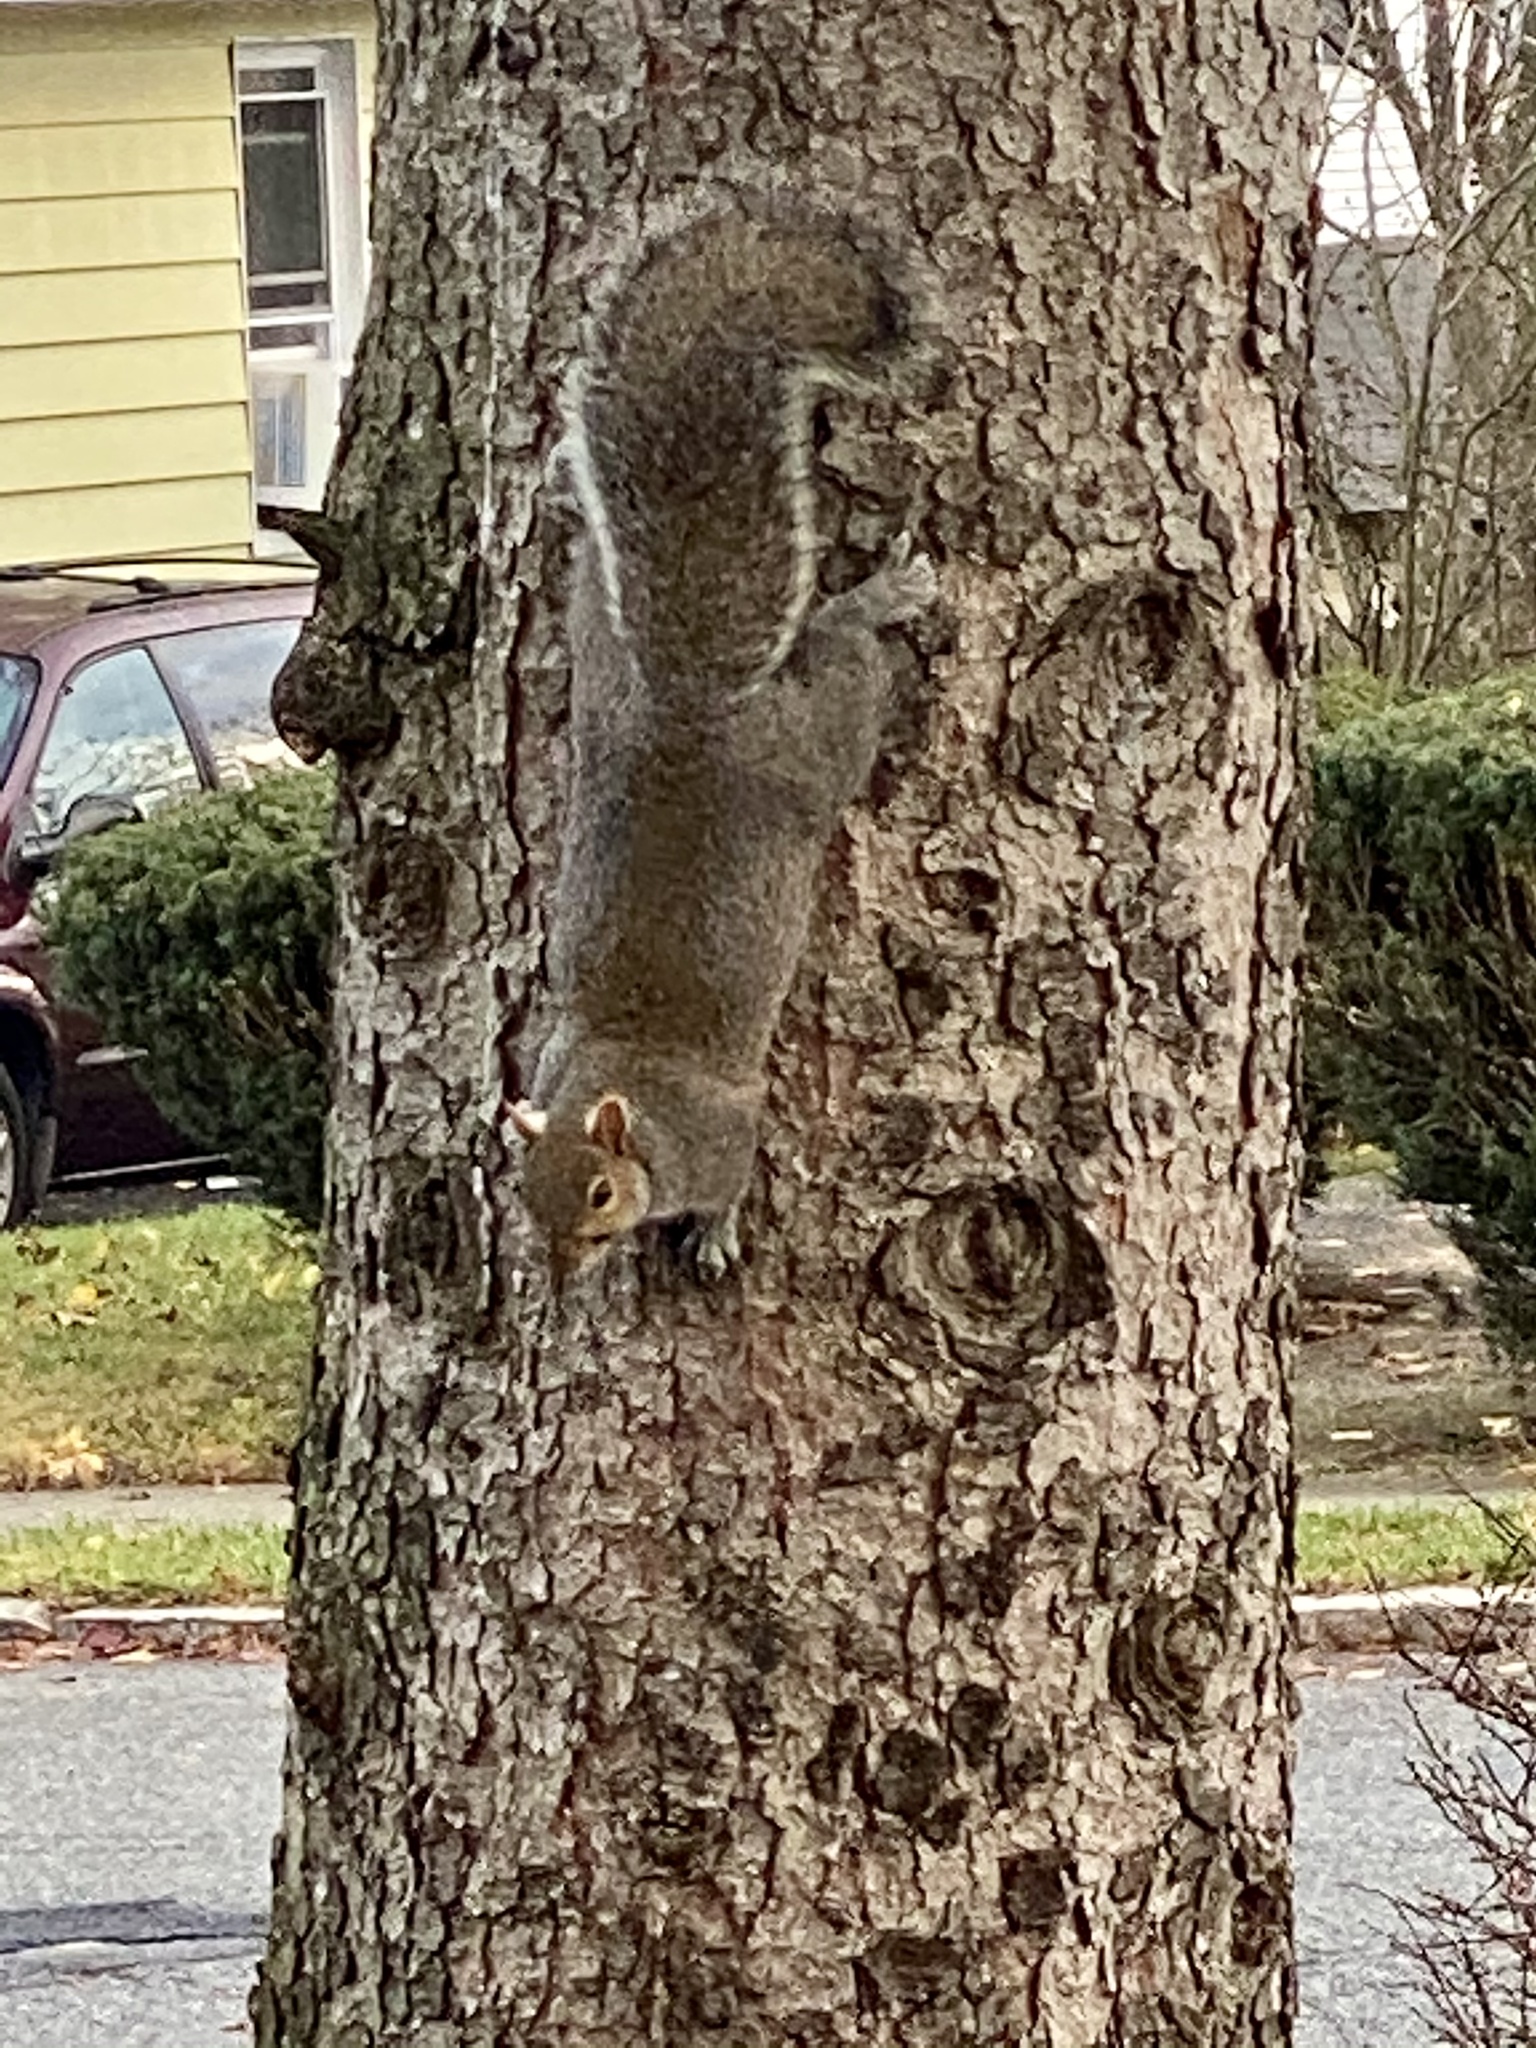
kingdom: Animalia
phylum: Chordata
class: Mammalia
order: Rodentia
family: Sciuridae
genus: Sciurus
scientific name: Sciurus carolinensis
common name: Eastern gray squirrel
